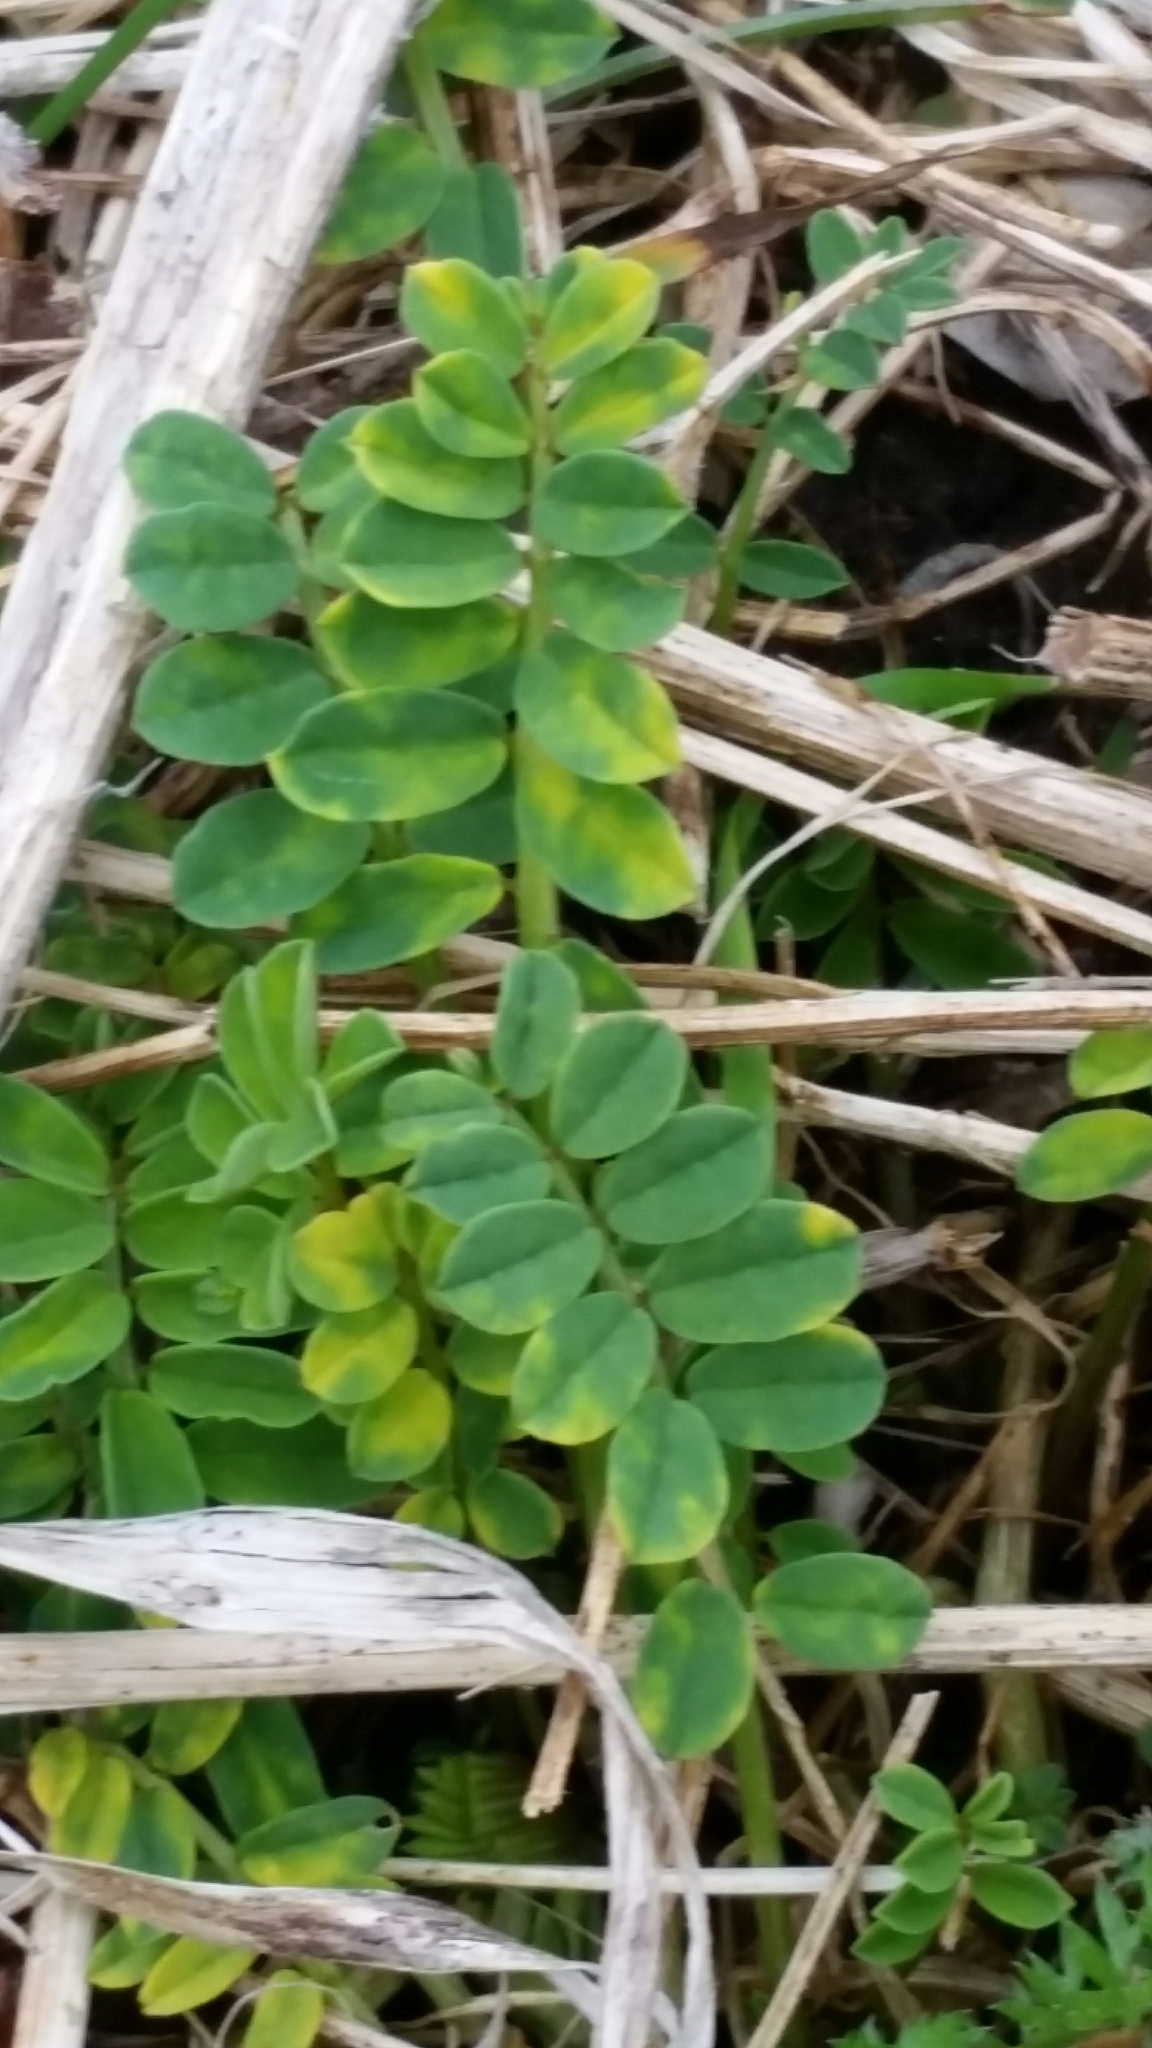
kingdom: Plantae
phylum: Tracheophyta
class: Magnoliopsida
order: Fabales
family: Fabaceae
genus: Coronilla
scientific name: Coronilla varia
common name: Crownvetch
